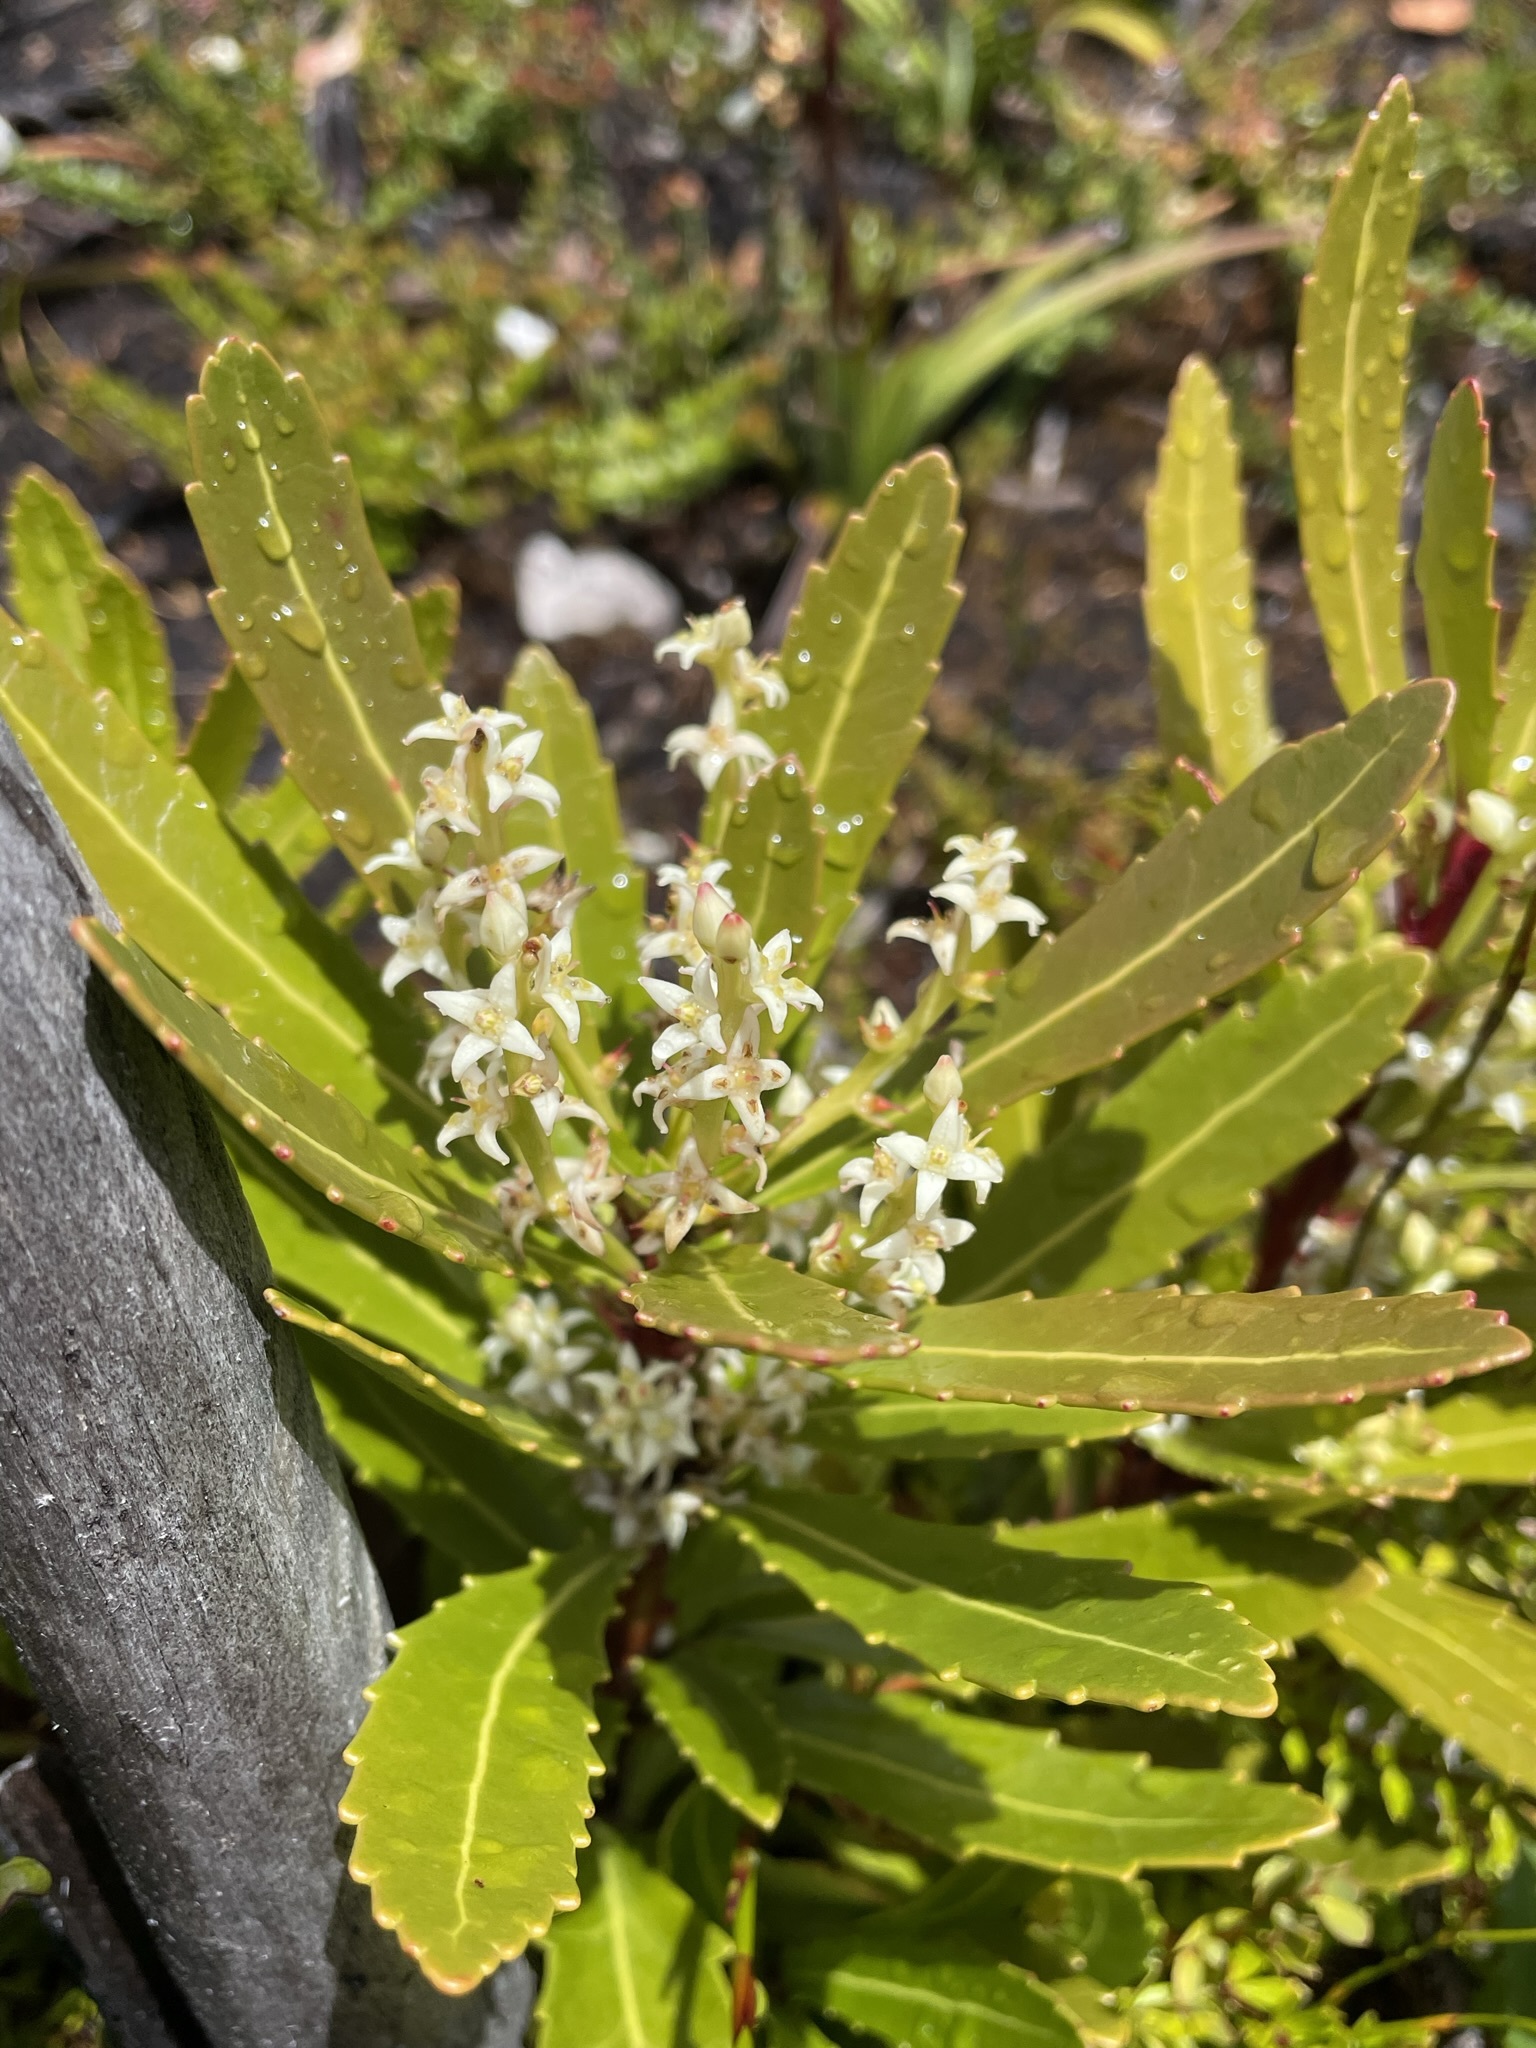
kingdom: Plantae
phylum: Tracheophyta
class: Magnoliopsida
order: Proteales
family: Proteaceae
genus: Cenarrhenes
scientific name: Cenarrhenes nitida
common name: Native plum
